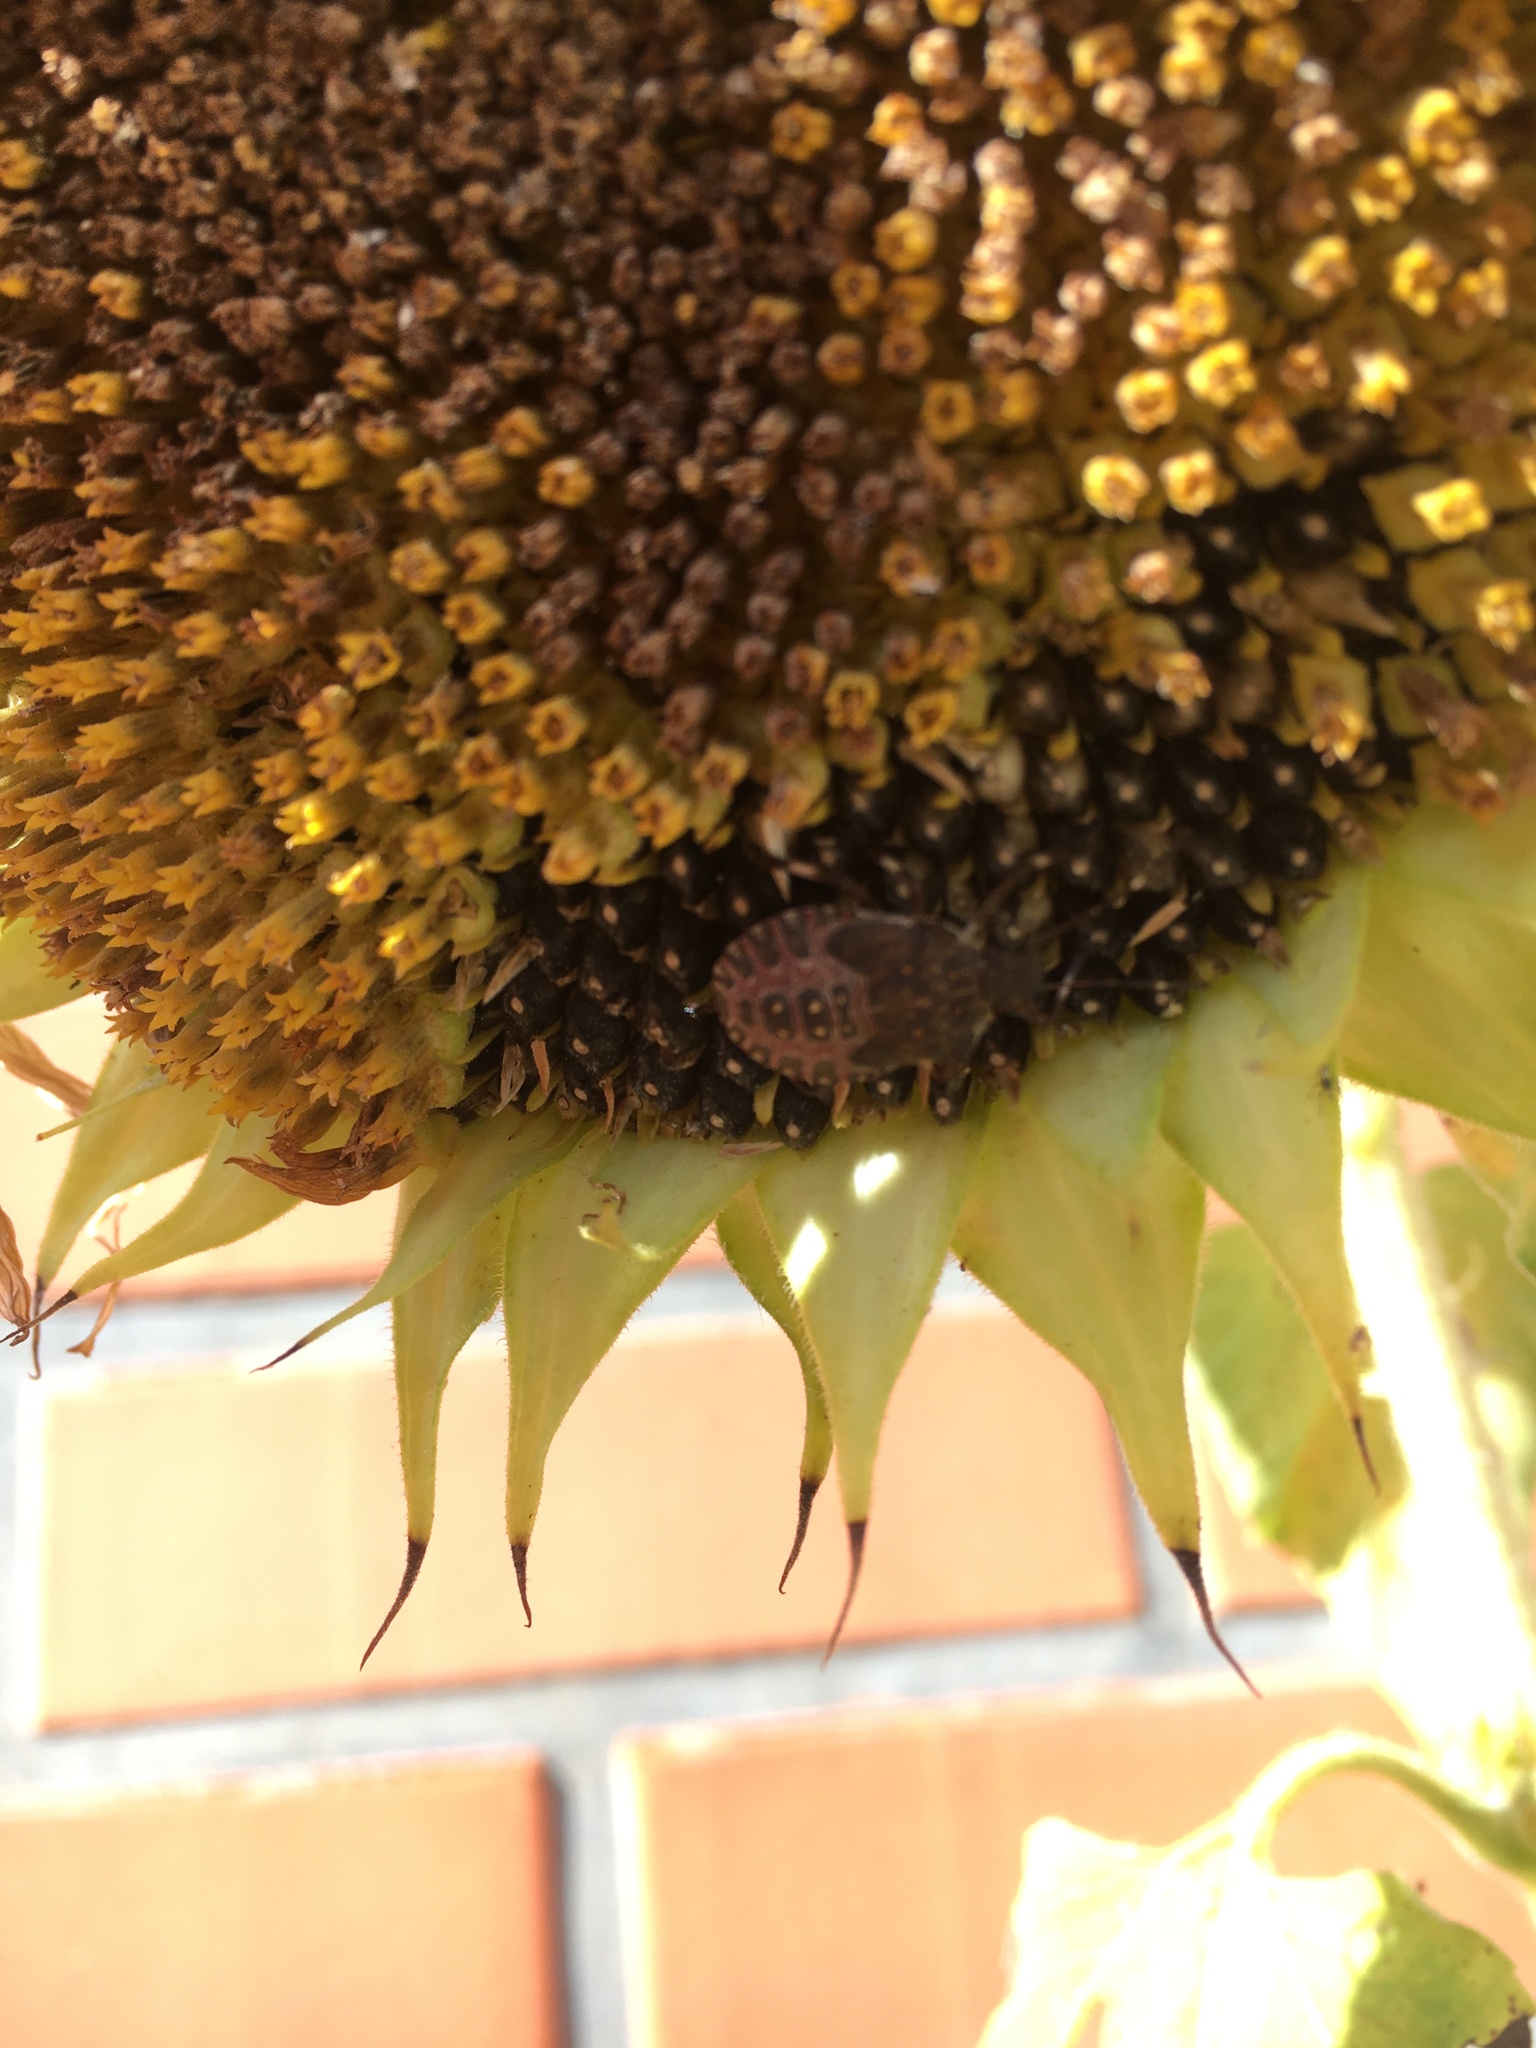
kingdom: Animalia
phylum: Arthropoda
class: Insecta
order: Hemiptera
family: Pentatomidae
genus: Halyomorpha
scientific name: Halyomorpha halys
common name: Brown marmorated stink bug
